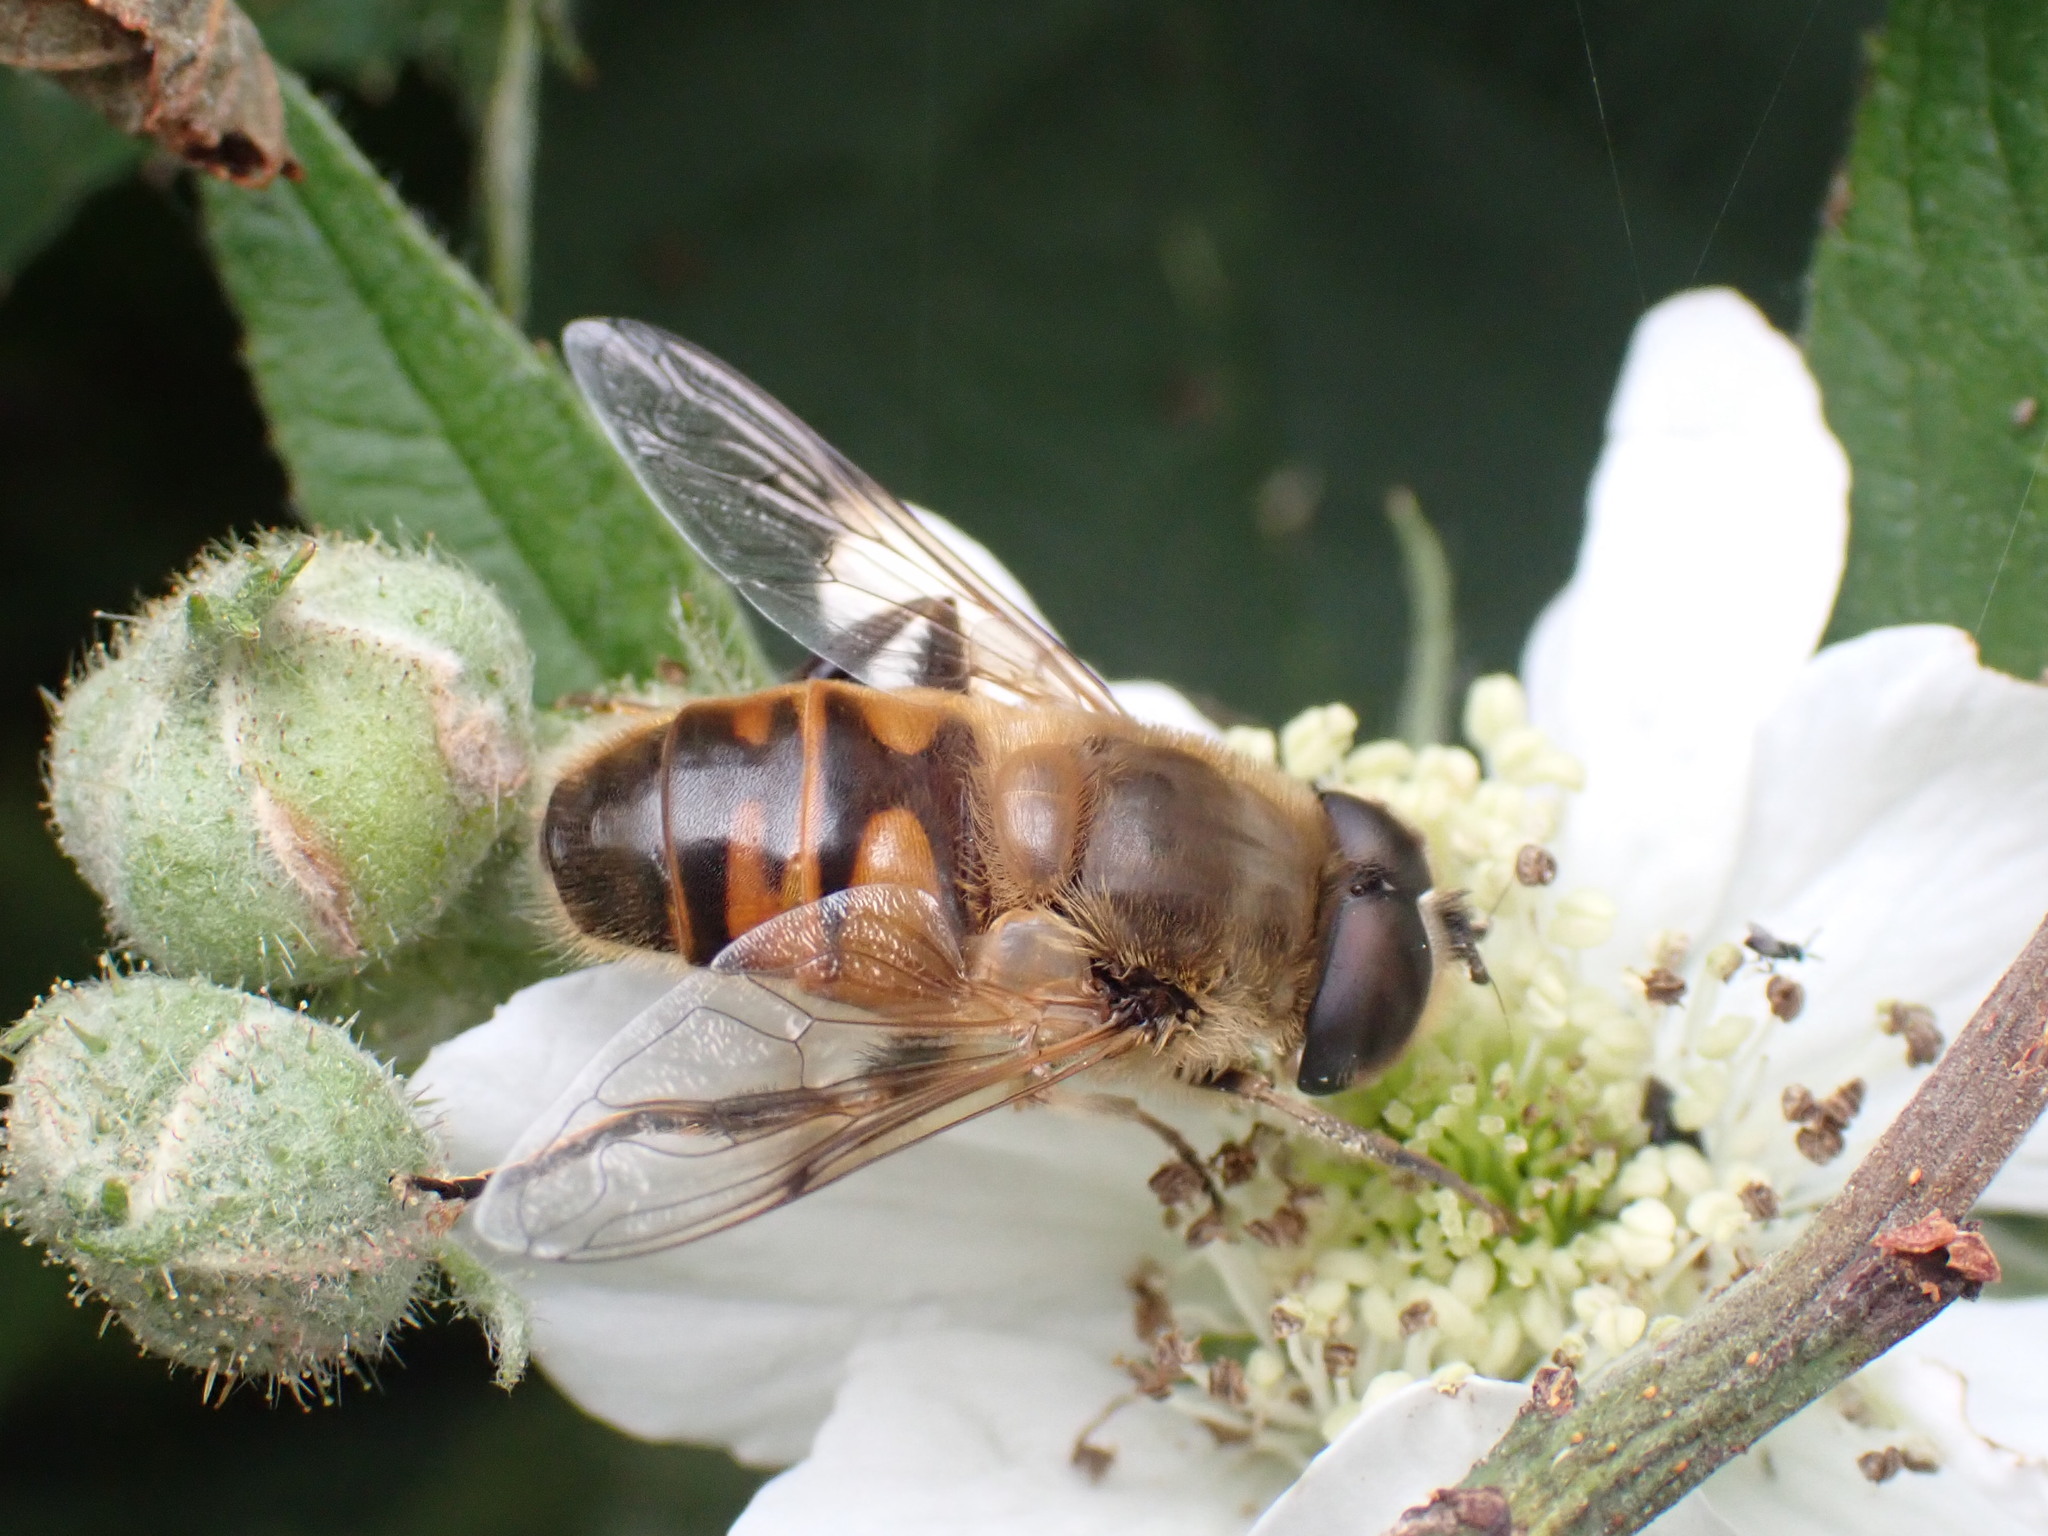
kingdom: Animalia
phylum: Arthropoda
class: Insecta
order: Diptera
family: Syrphidae
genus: Eristalis
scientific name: Eristalis tenax
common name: Drone fly
